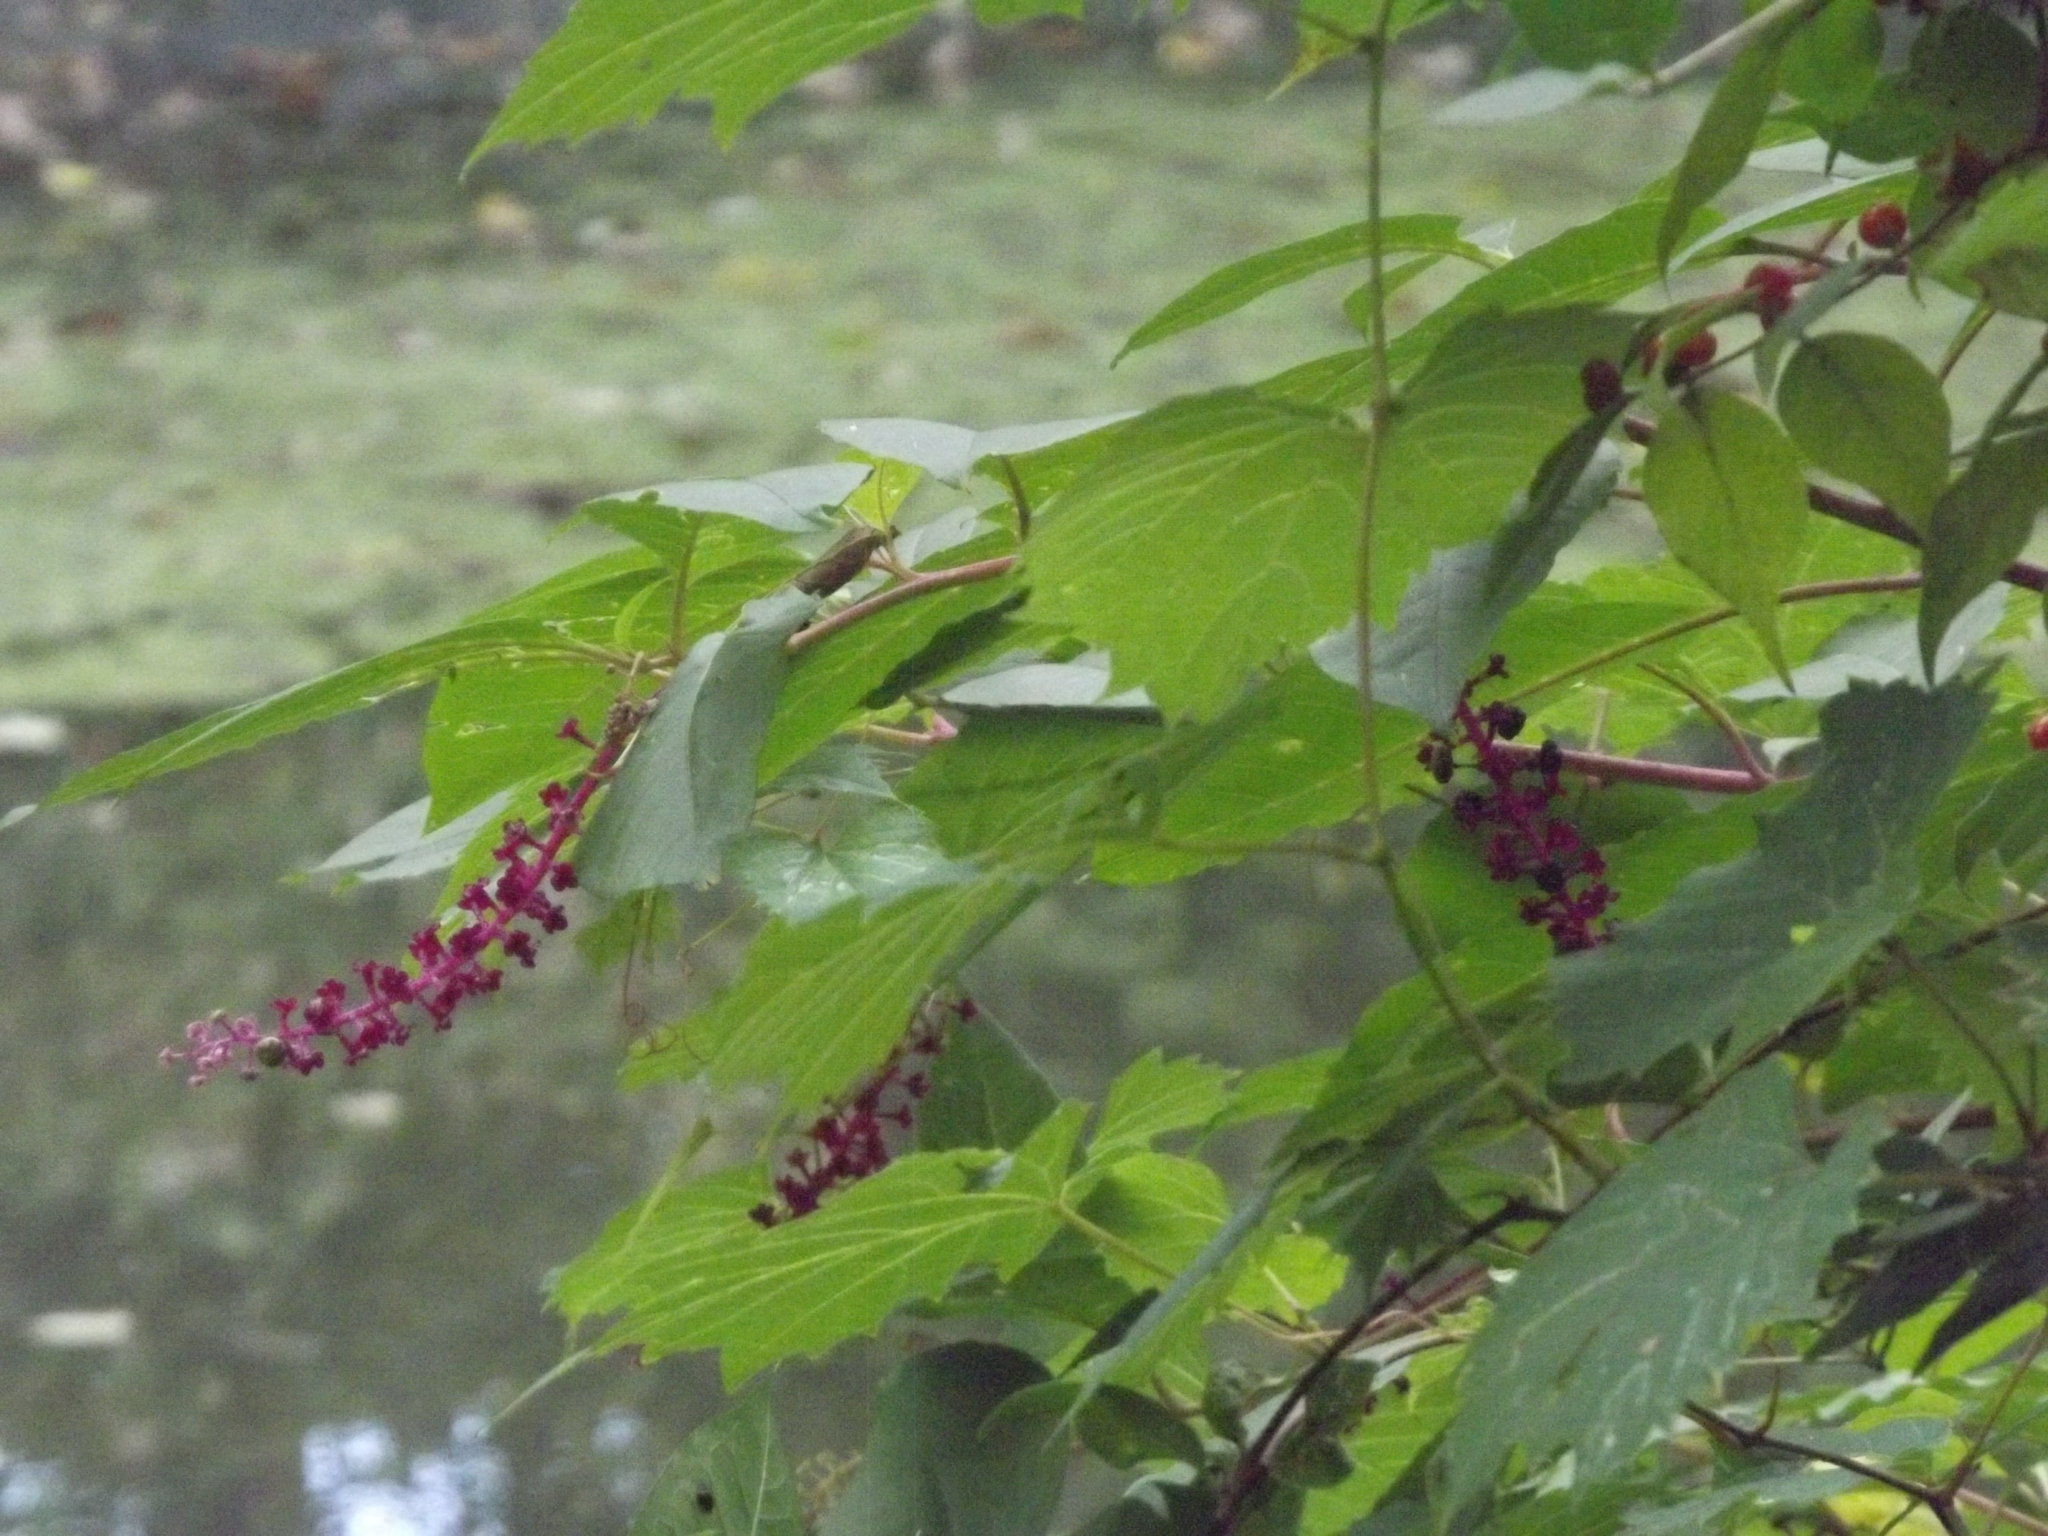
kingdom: Plantae
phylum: Tracheophyta
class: Magnoliopsida
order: Caryophyllales
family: Phytolaccaceae
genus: Phytolacca
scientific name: Phytolacca americana
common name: American pokeweed
